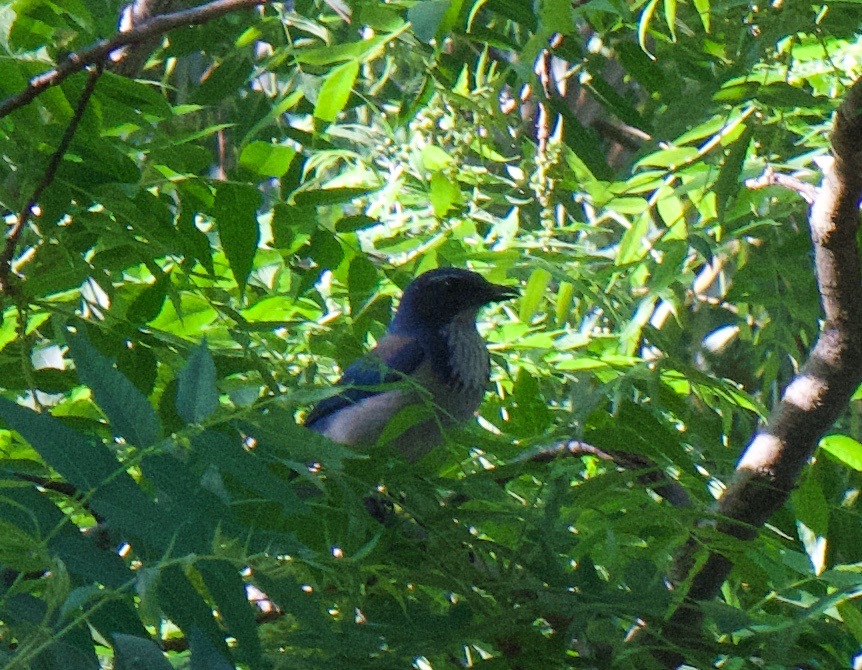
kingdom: Animalia
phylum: Chordata
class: Aves
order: Passeriformes
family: Corvidae
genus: Aphelocoma
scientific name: Aphelocoma californica
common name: California scrub-jay
